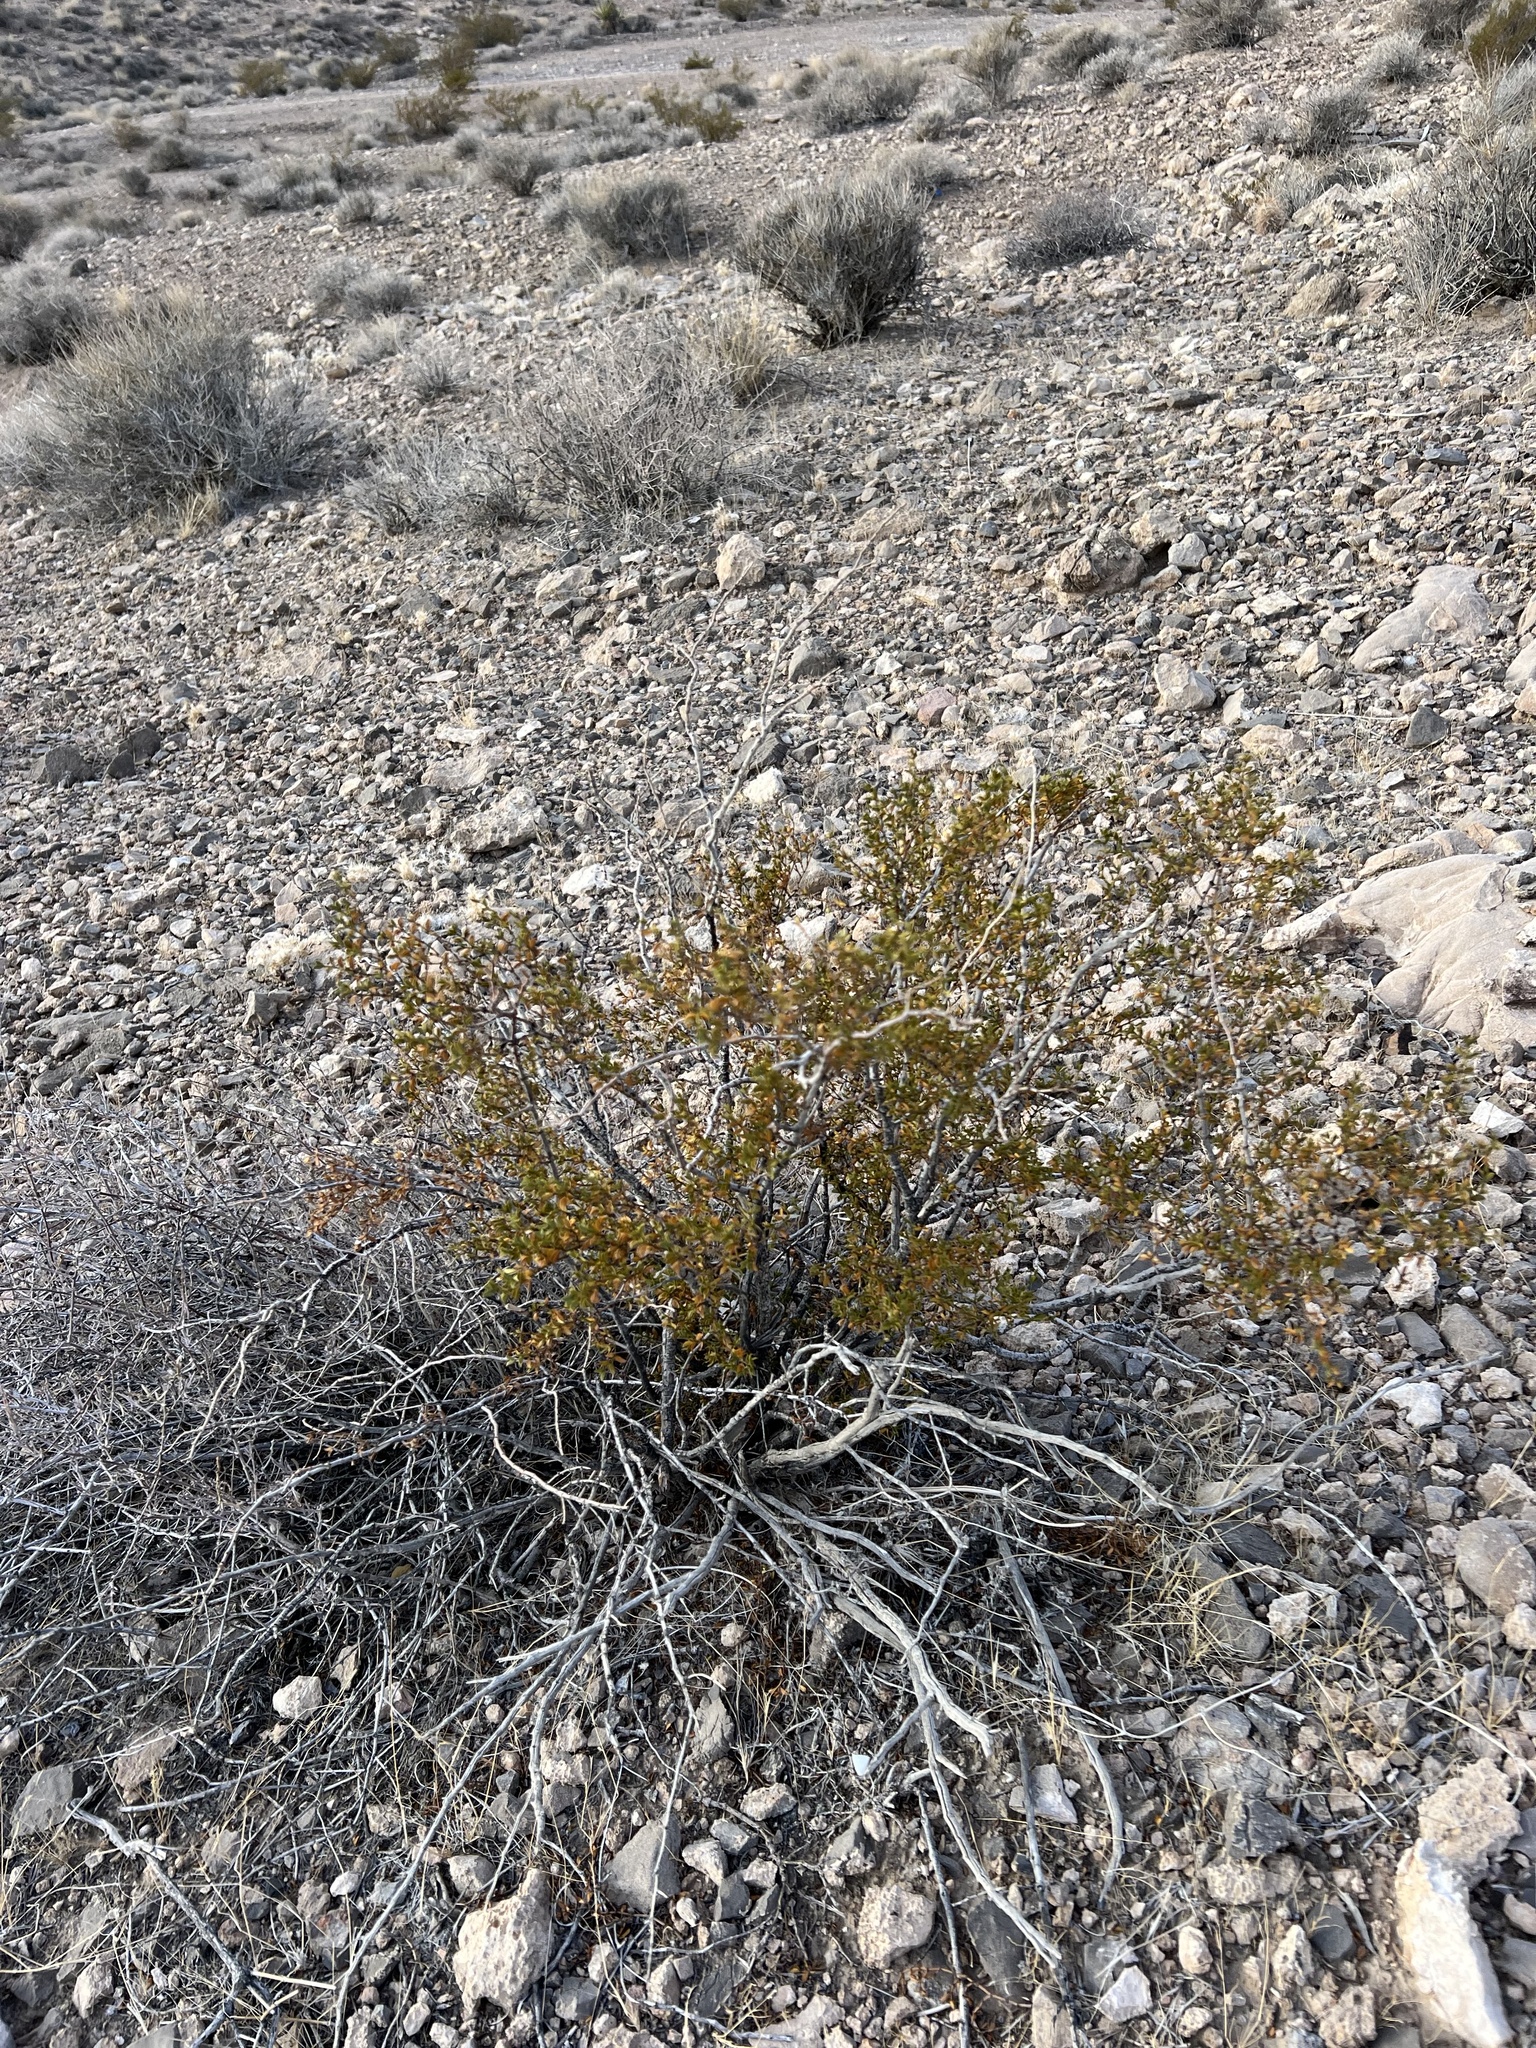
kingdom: Plantae
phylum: Tracheophyta
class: Magnoliopsida
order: Zygophyllales
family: Zygophyllaceae
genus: Larrea
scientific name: Larrea tridentata
